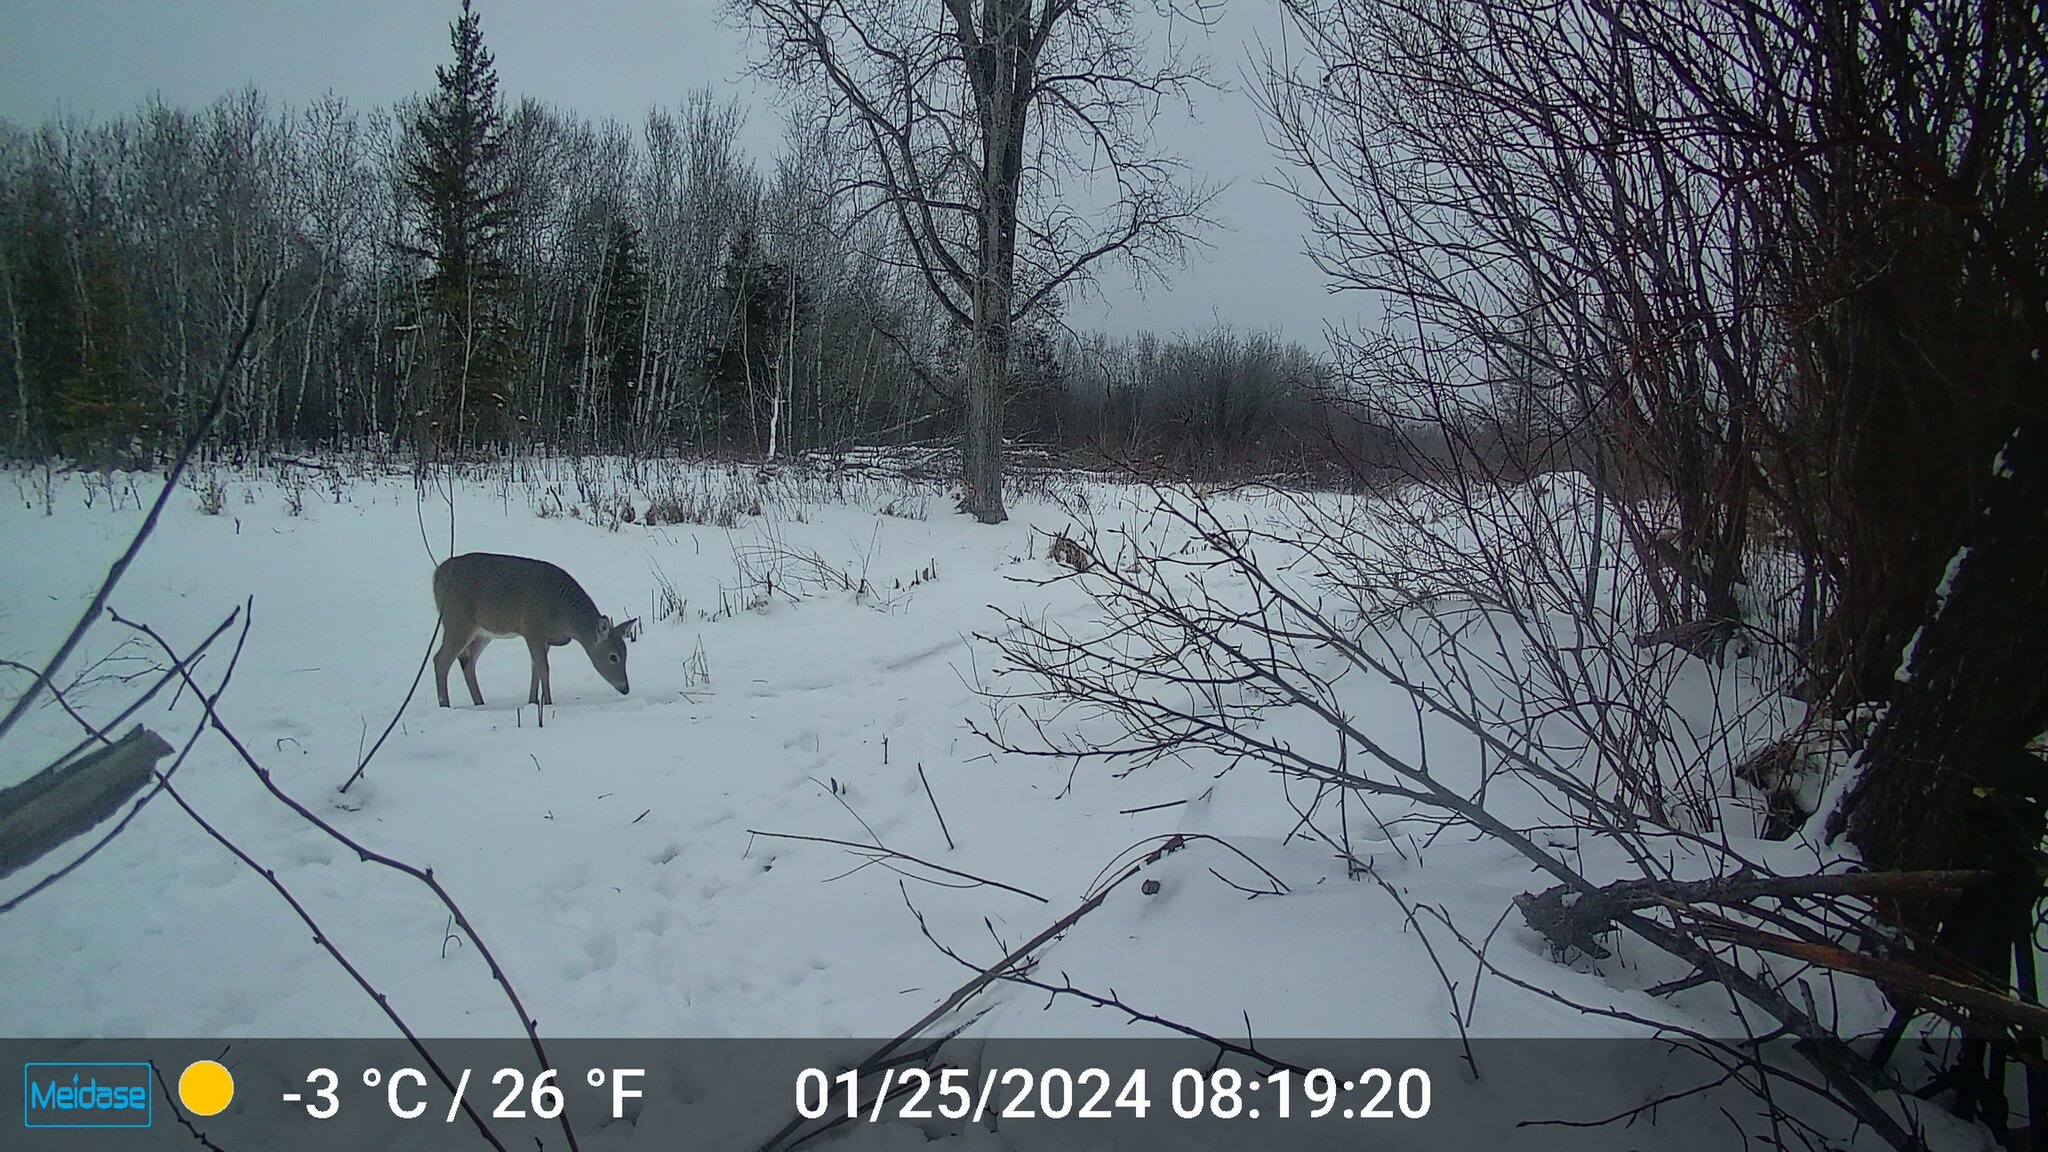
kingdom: Animalia
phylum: Chordata
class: Mammalia
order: Artiodactyla
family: Cervidae
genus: Odocoileus
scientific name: Odocoileus virginianus
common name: White-tailed deer
